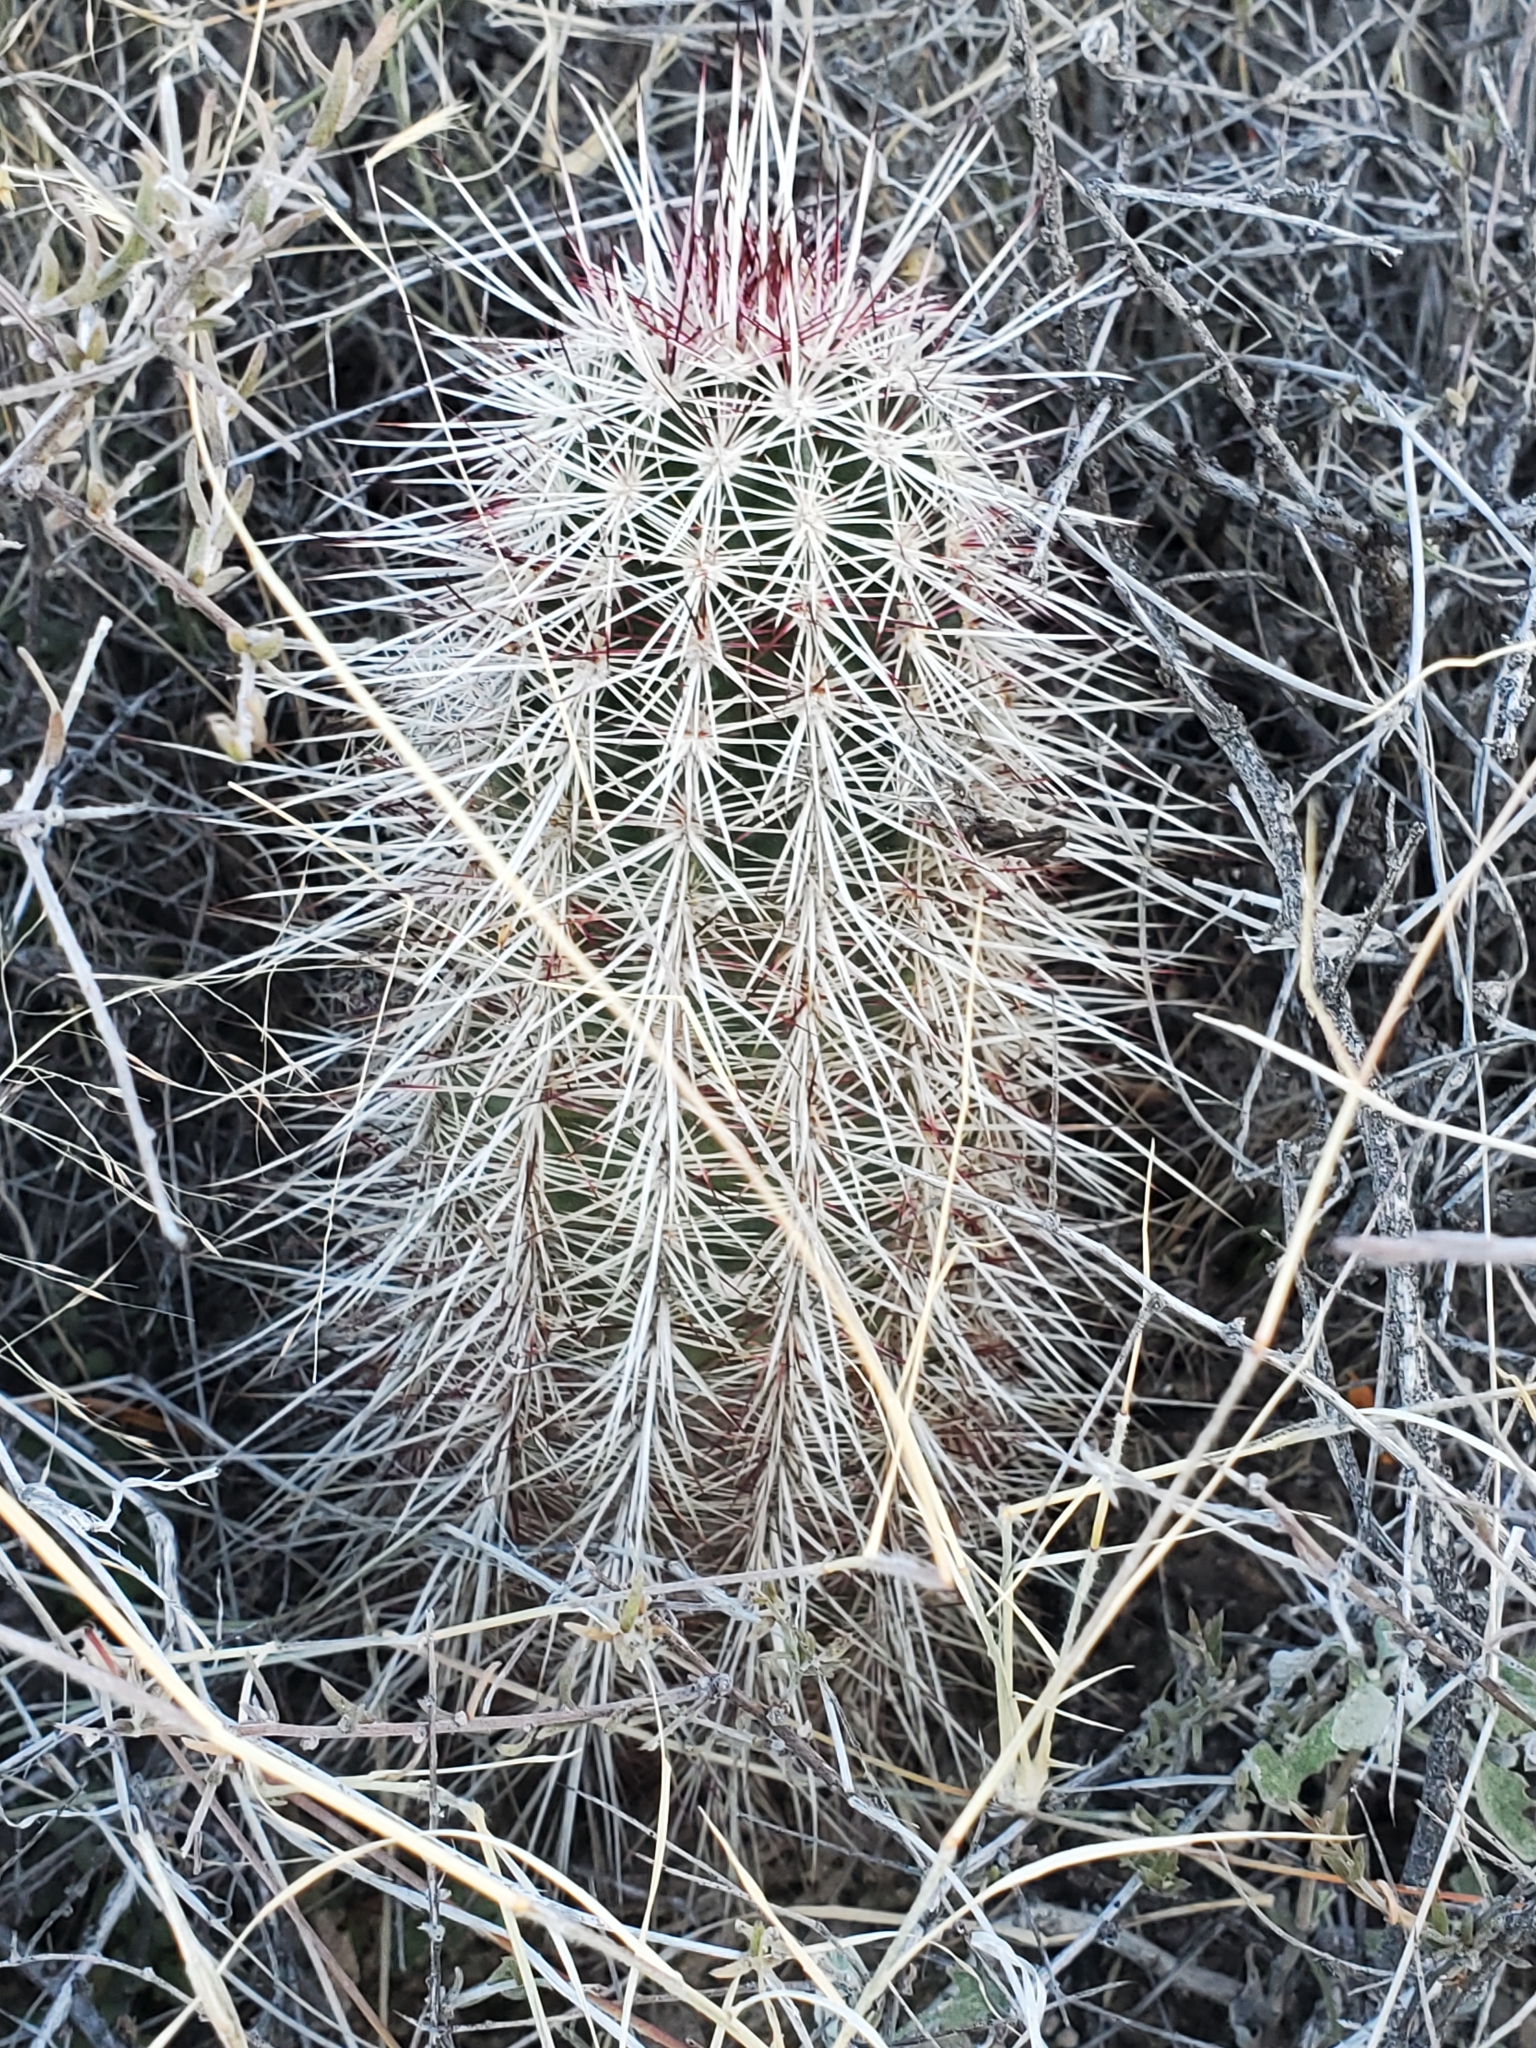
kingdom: Plantae
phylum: Tracheophyta
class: Magnoliopsida
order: Caryophyllales
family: Cactaceae
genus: Echinocereus
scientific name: Echinocereus viridiflorus
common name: Nylon hedgehog cactus
